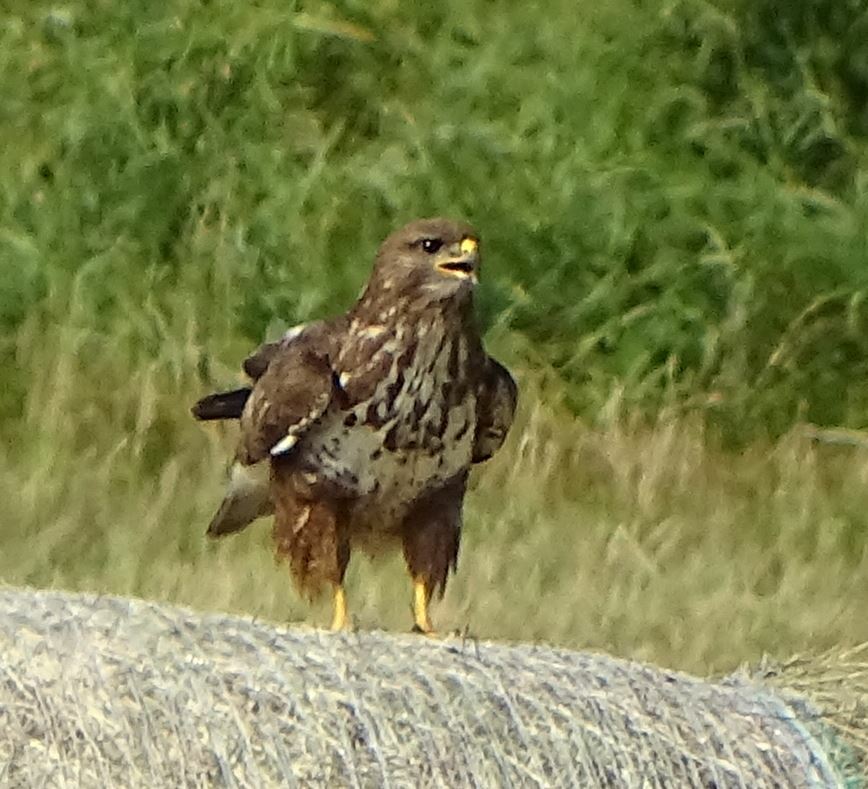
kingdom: Animalia
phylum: Chordata
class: Aves
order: Accipitriformes
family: Accipitridae
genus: Buteo
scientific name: Buteo buteo
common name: Common buzzard
